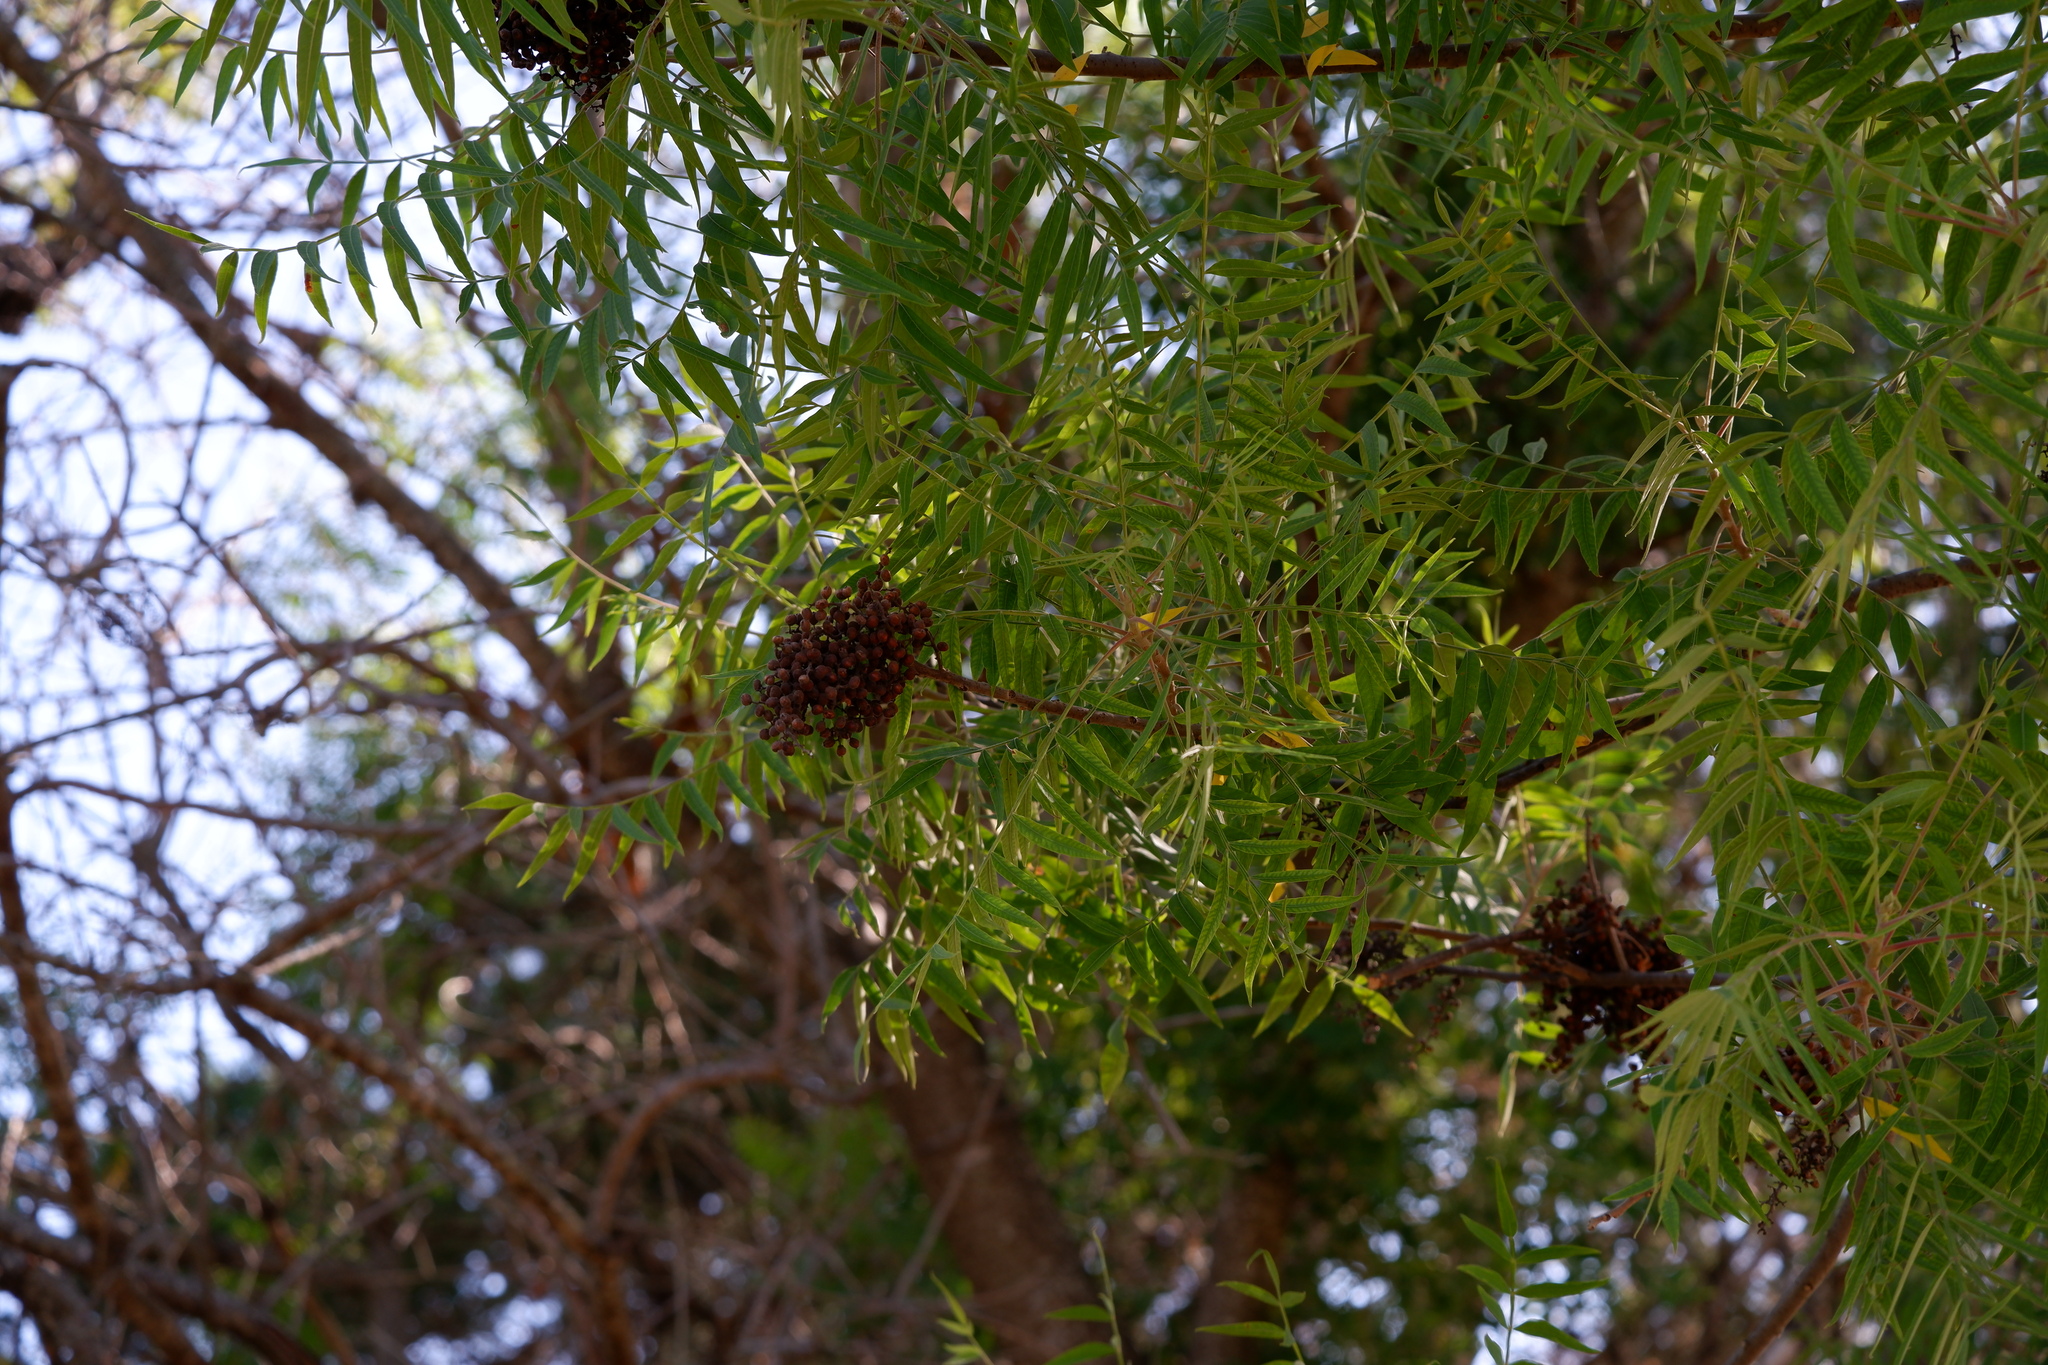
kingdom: Plantae
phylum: Tracheophyta
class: Magnoliopsida
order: Sapindales
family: Anacardiaceae
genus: Rhus
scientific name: Rhus lanceolata
